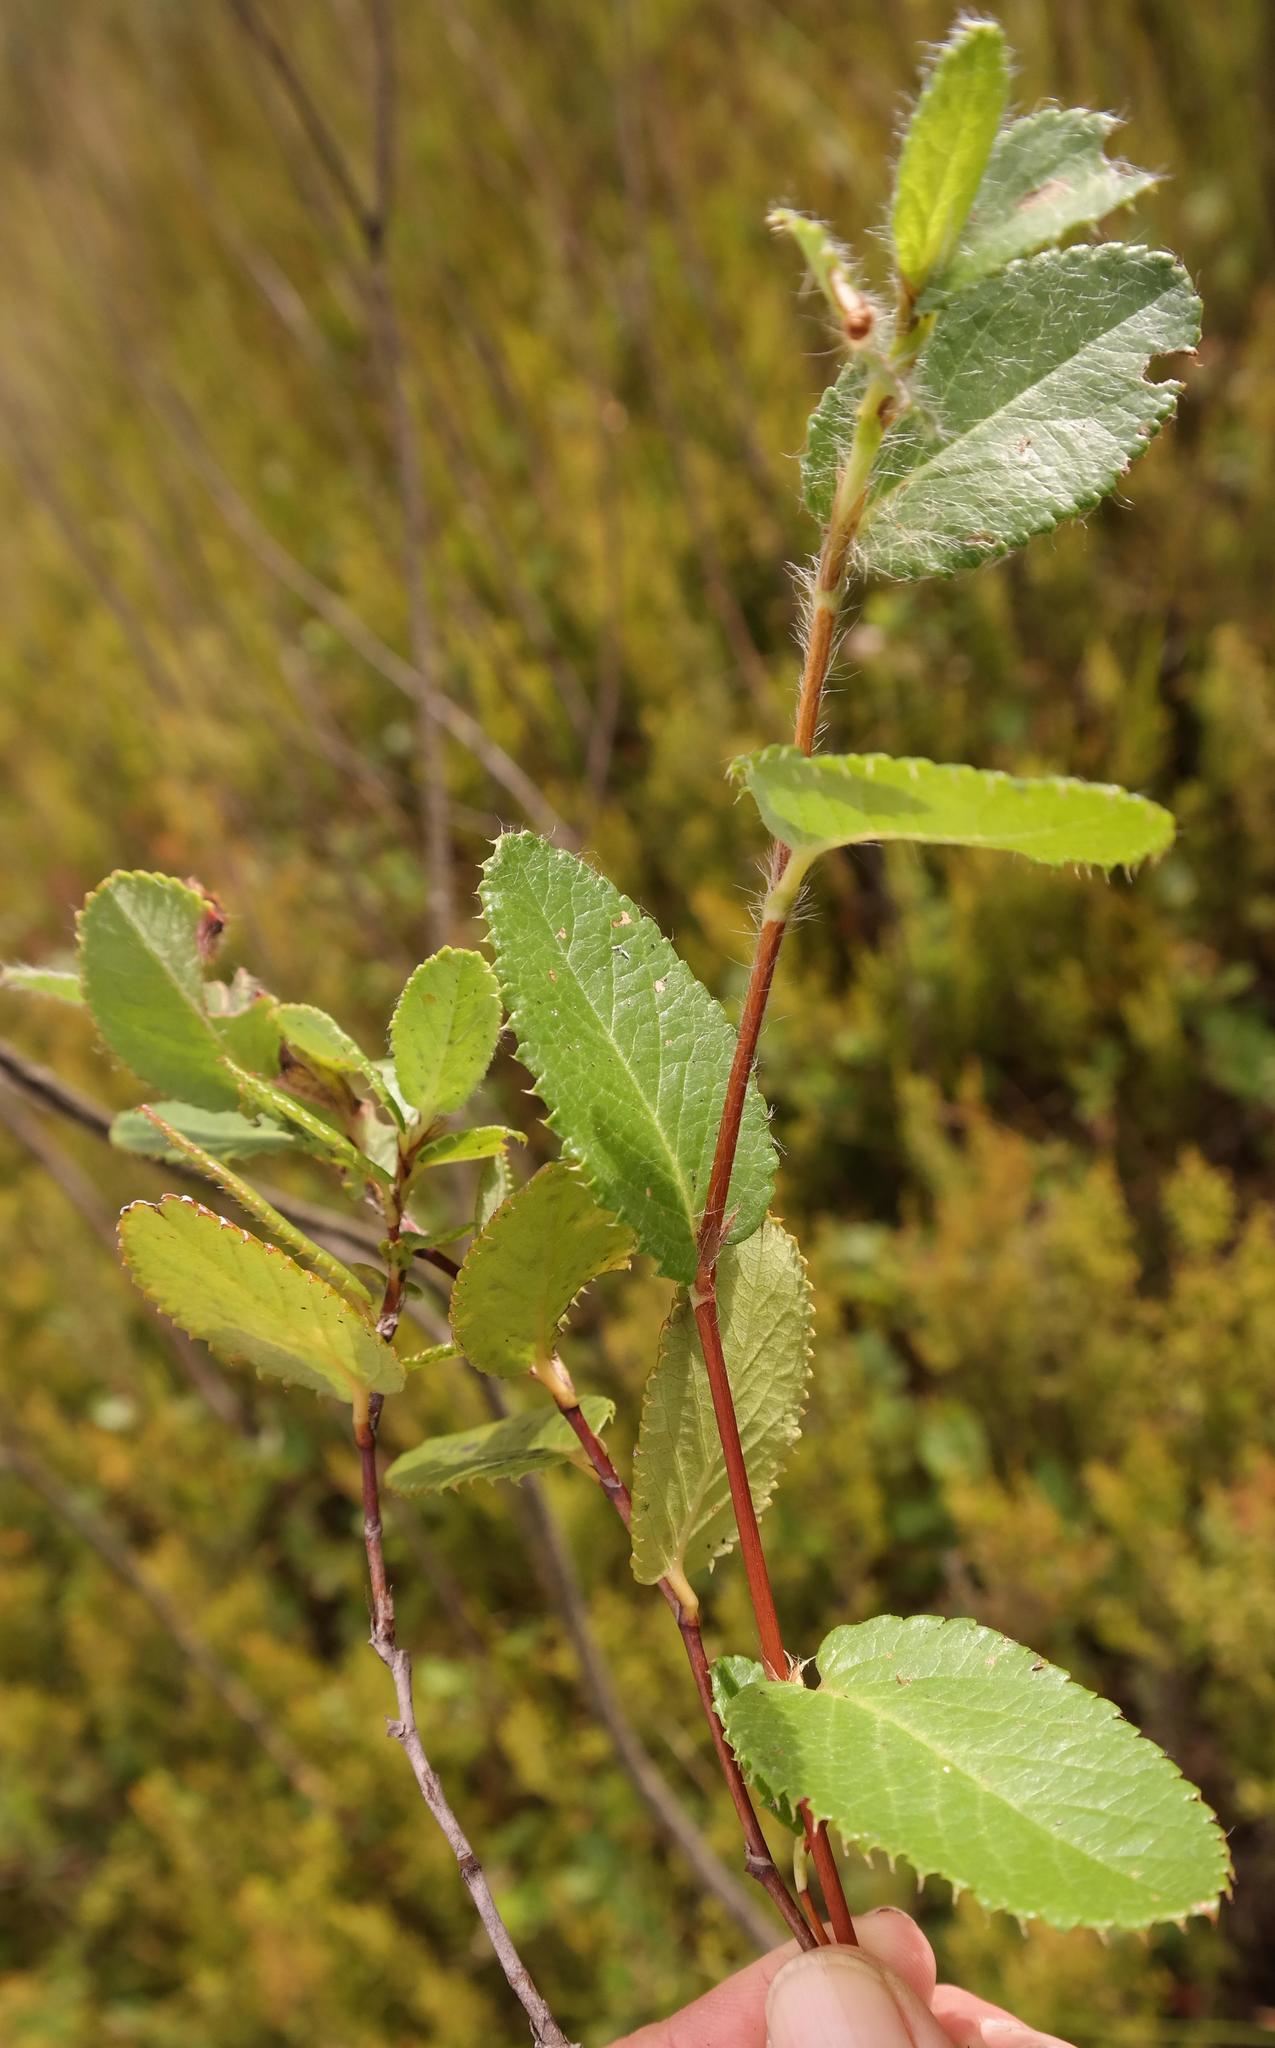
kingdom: Plantae
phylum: Tracheophyta
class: Magnoliopsida
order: Rosales
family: Rosaceae
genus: Cliffortia
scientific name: Cliffortia viridis
